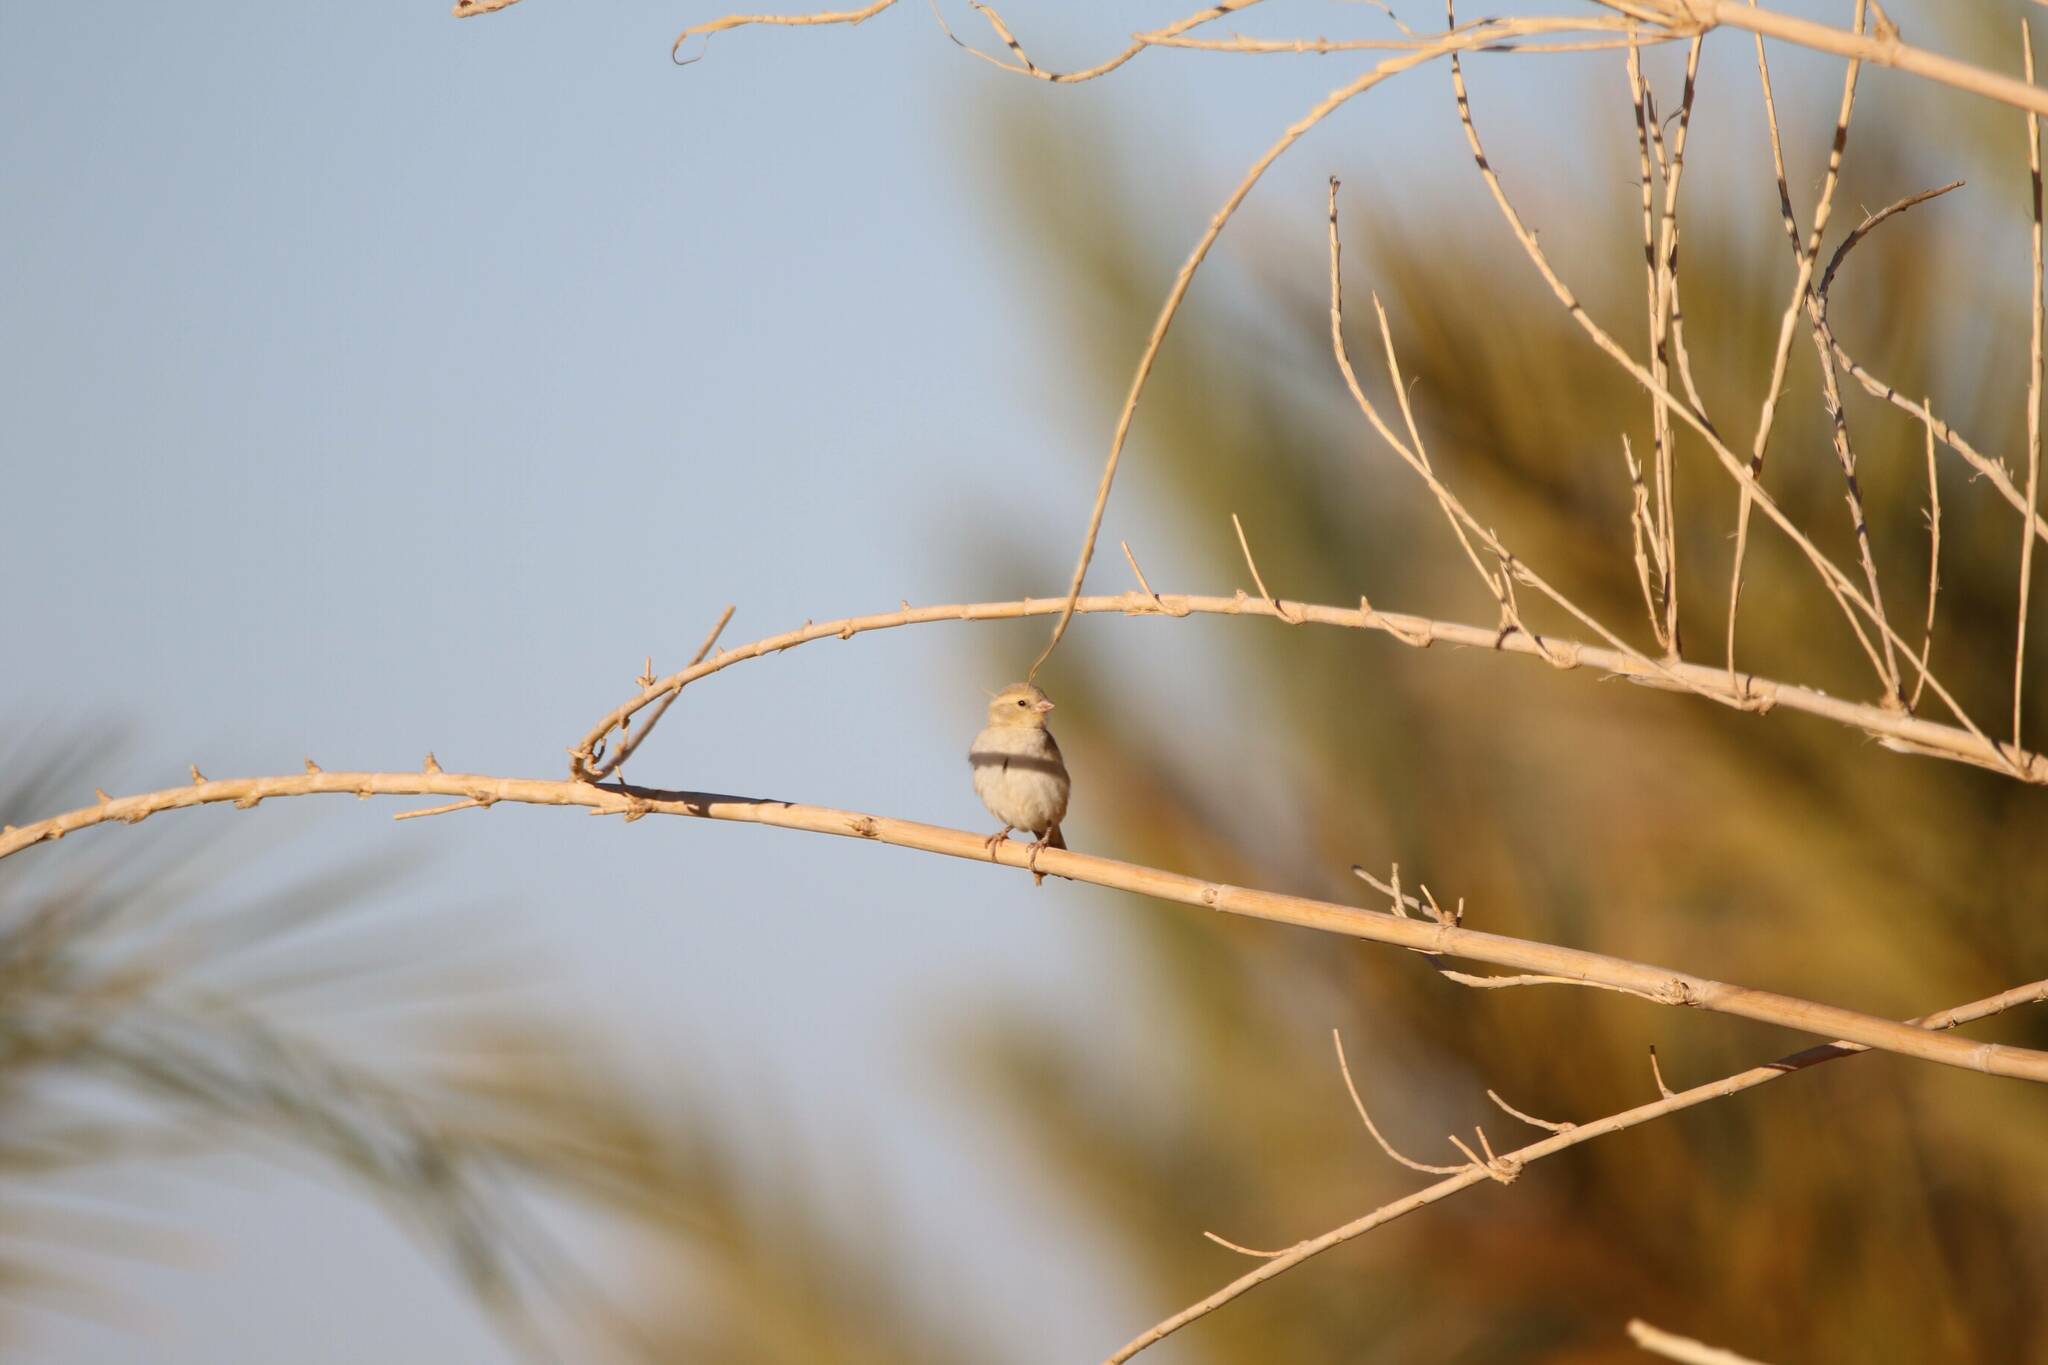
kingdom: Animalia
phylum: Chordata
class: Aves
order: Passeriformes
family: Estrildidae
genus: Euodice
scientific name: Euodice cantans
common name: African silverbill
